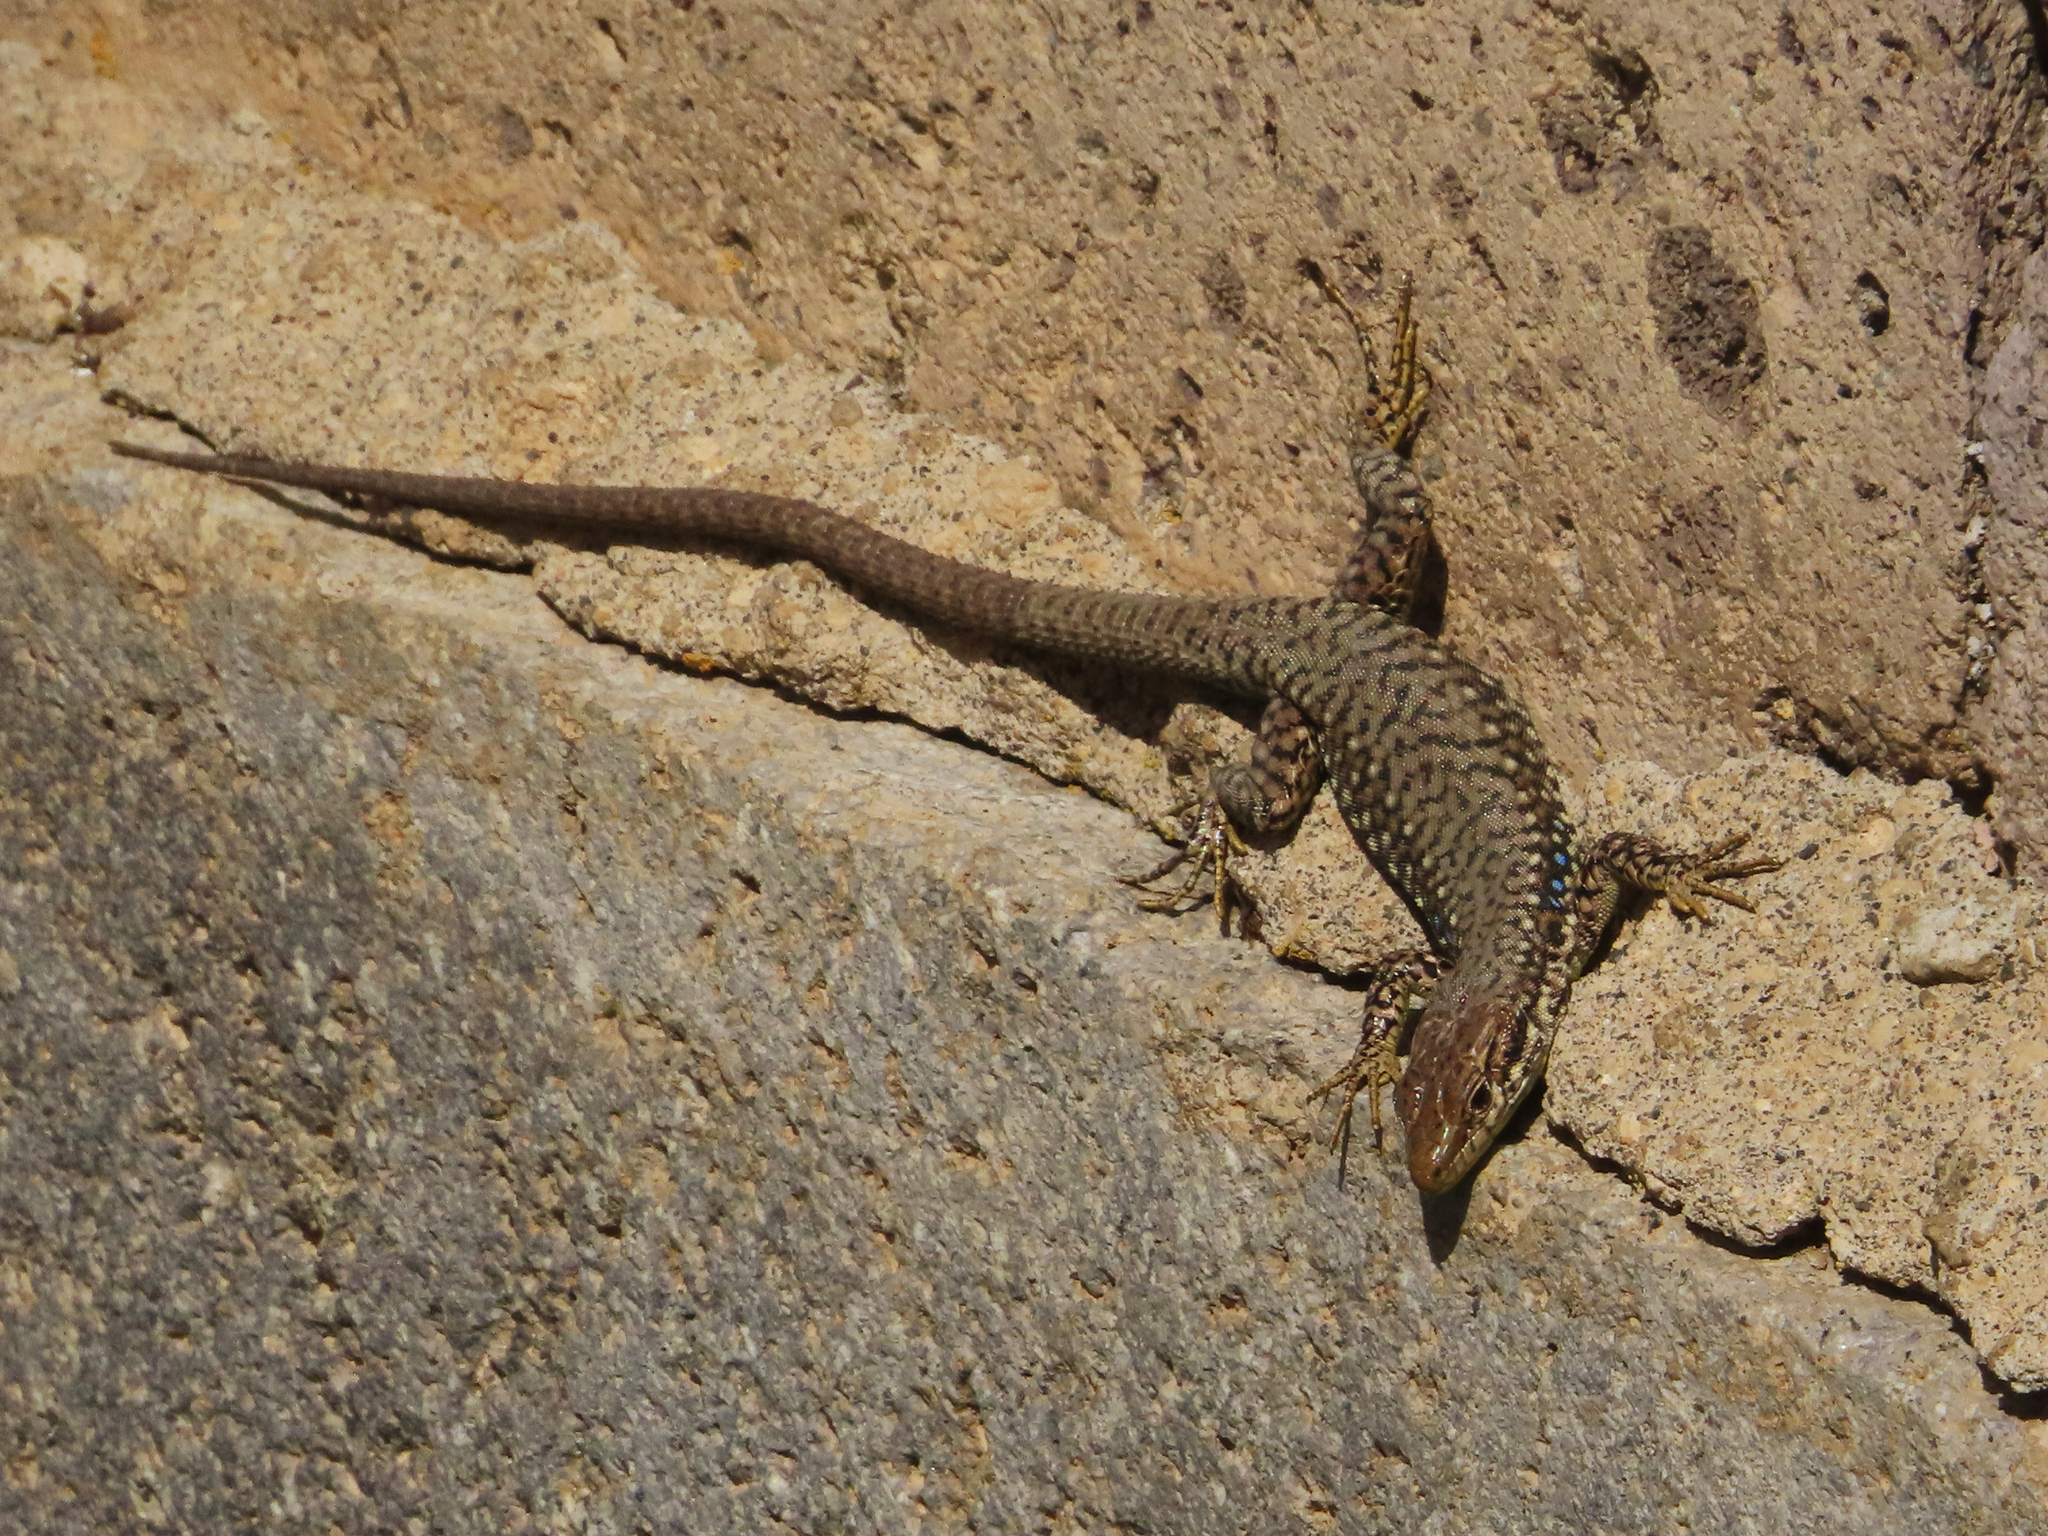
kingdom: Animalia
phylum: Chordata
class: Squamata
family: Lacertidae
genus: Darevskia
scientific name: Darevskia
